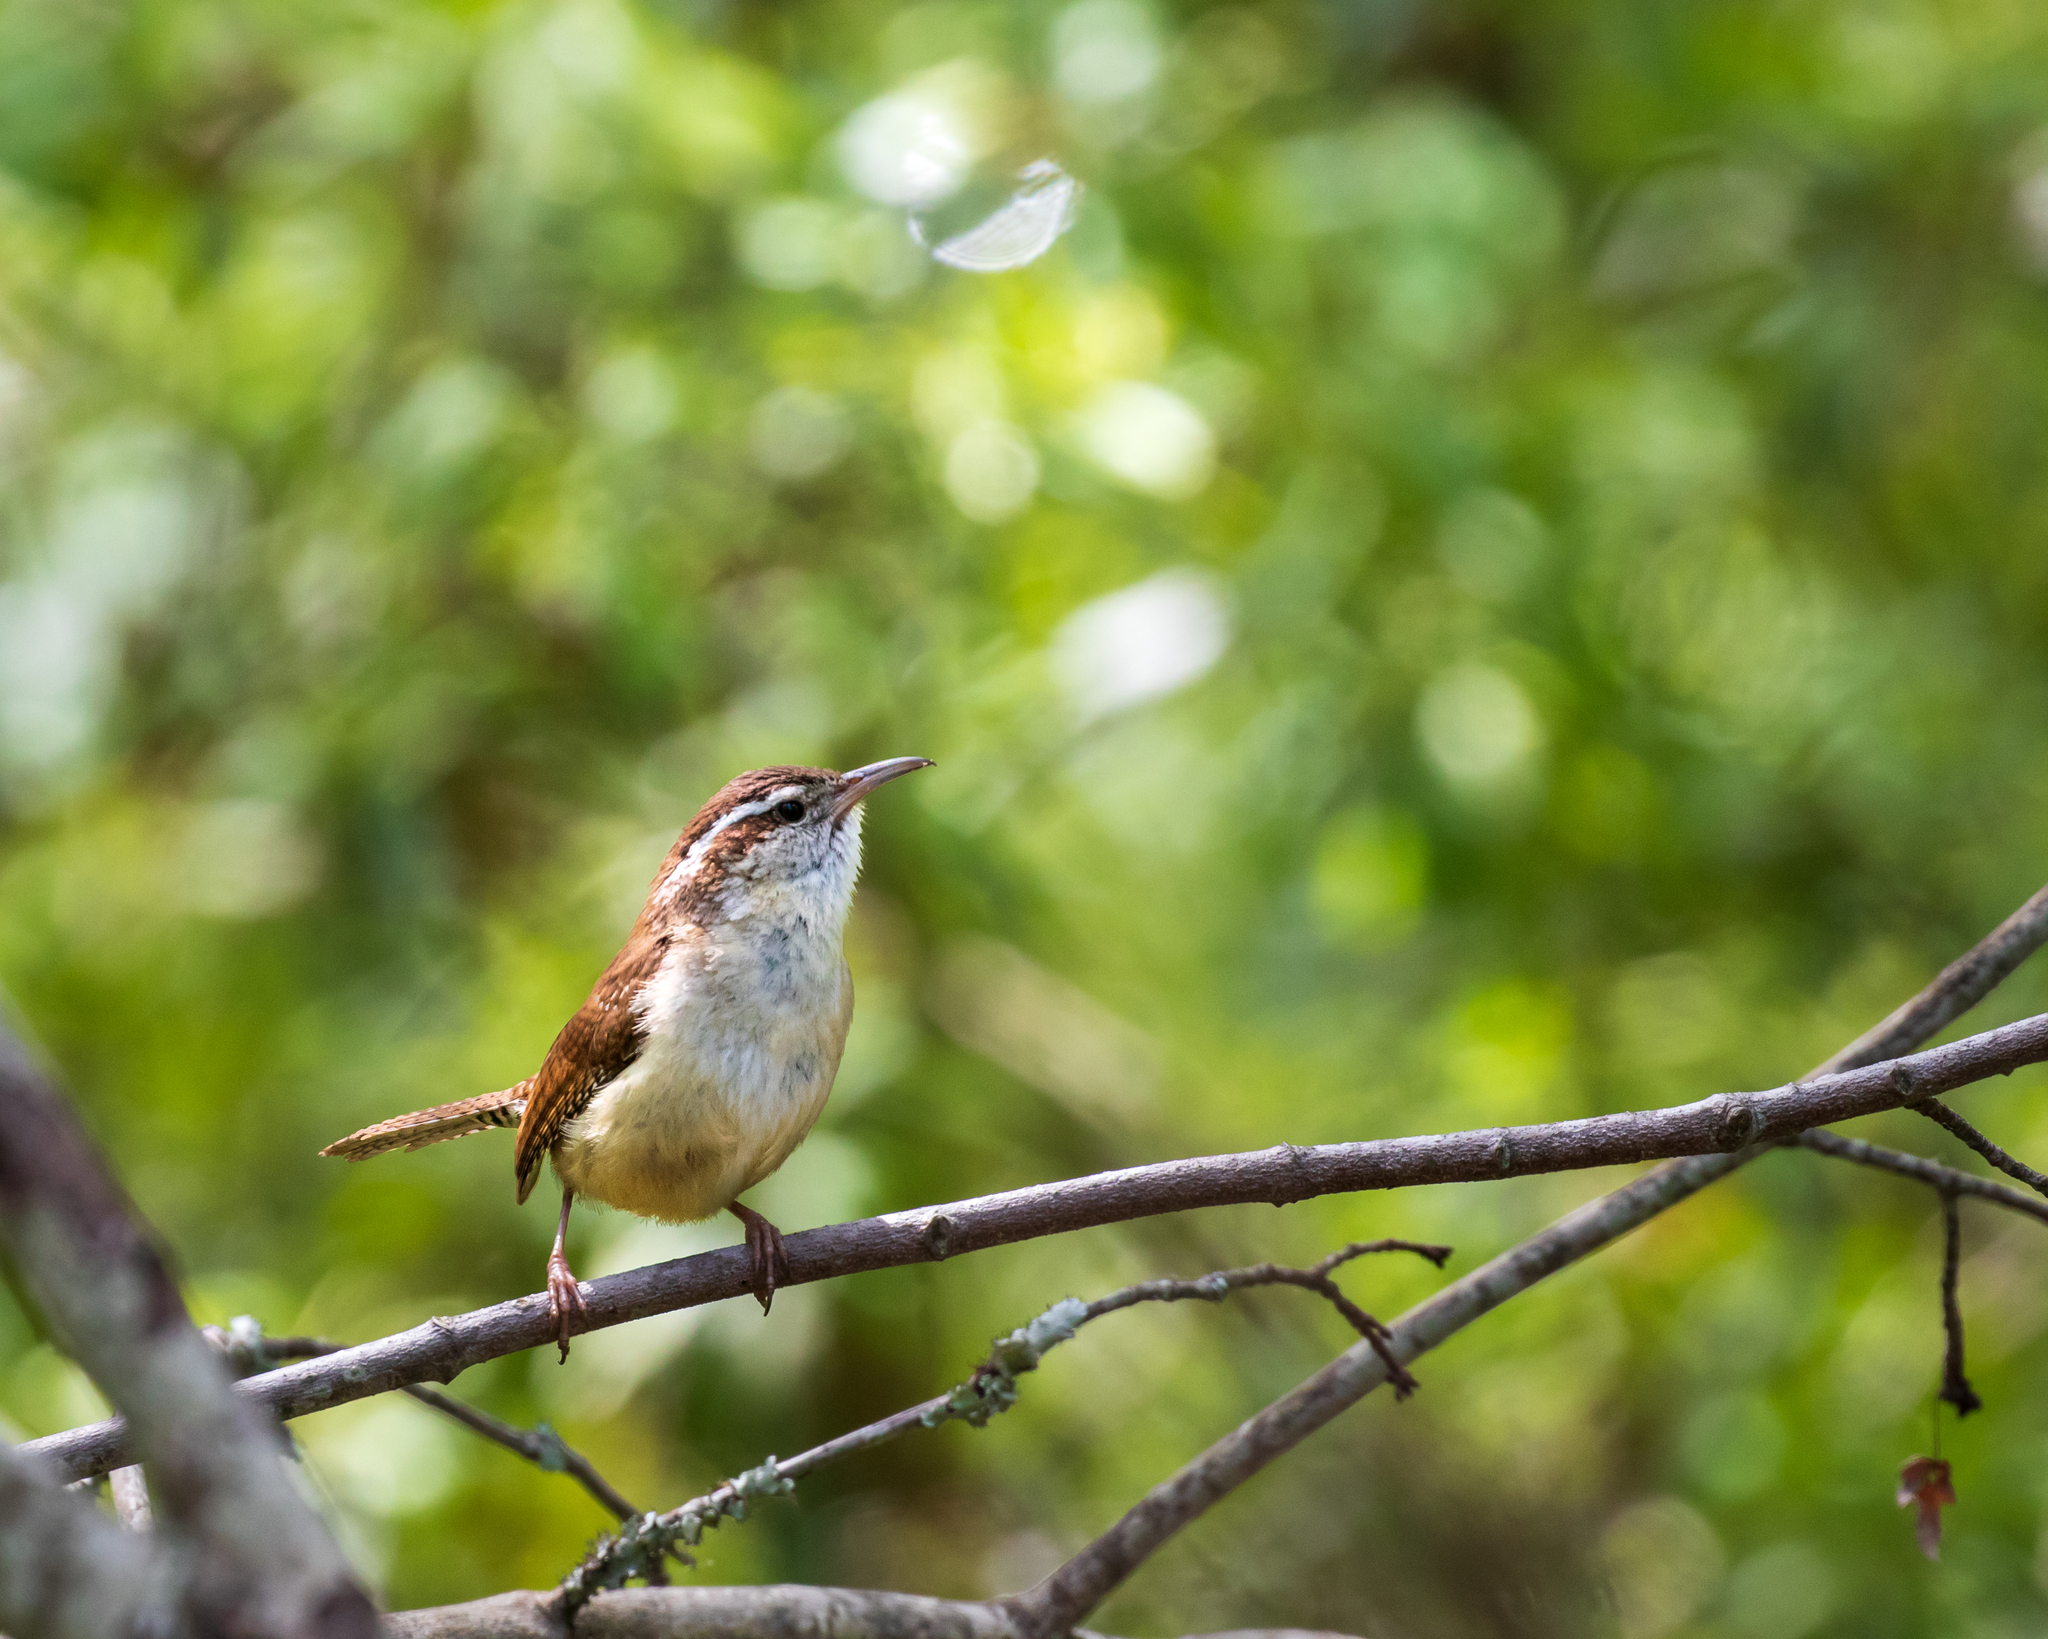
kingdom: Animalia
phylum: Chordata
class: Aves
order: Passeriformes
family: Troglodytidae
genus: Thryothorus
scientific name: Thryothorus ludovicianus
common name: Carolina wren
